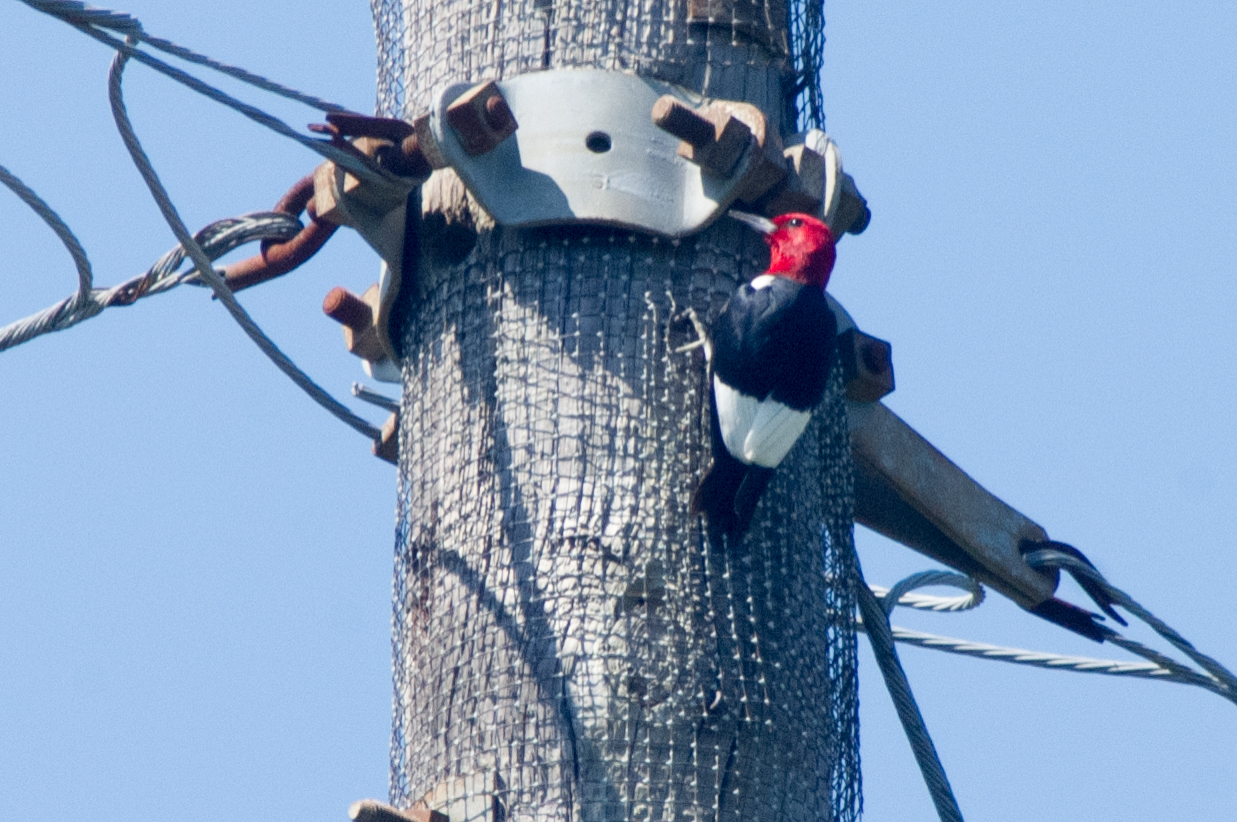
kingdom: Animalia
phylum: Chordata
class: Aves
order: Piciformes
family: Picidae
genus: Melanerpes
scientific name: Melanerpes erythrocephalus
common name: Red-headed woodpecker
